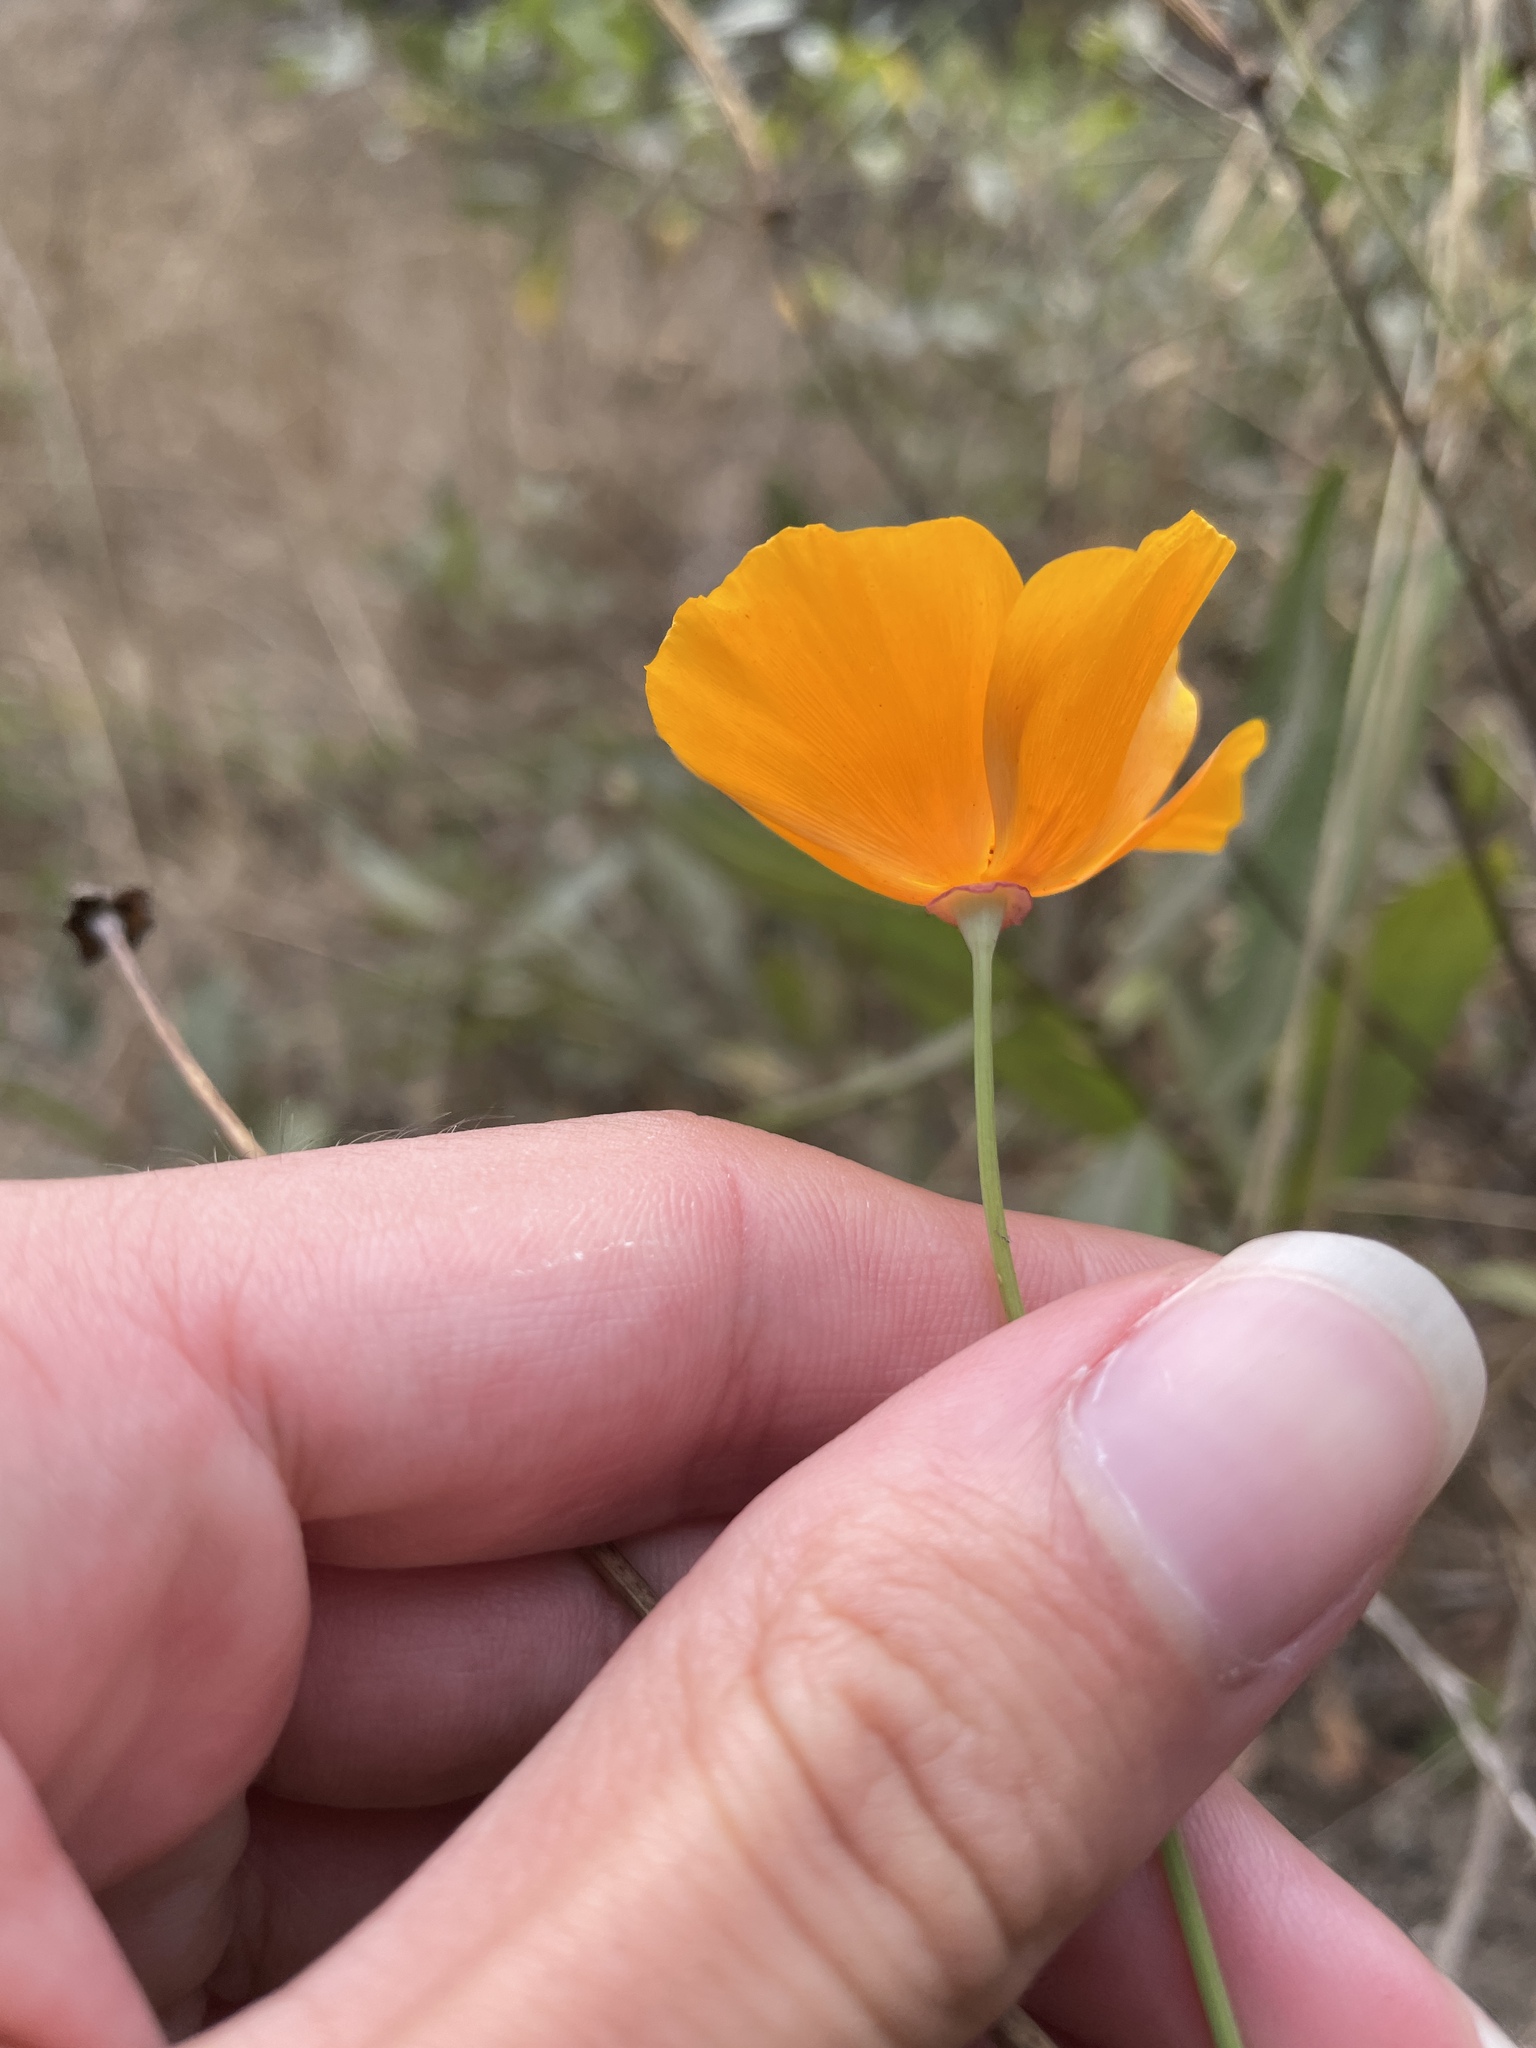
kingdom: Plantae
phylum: Tracheophyta
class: Magnoliopsida
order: Ranunculales
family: Papaveraceae
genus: Eschscholzia
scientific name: Eschscholzia californica
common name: California poppy
